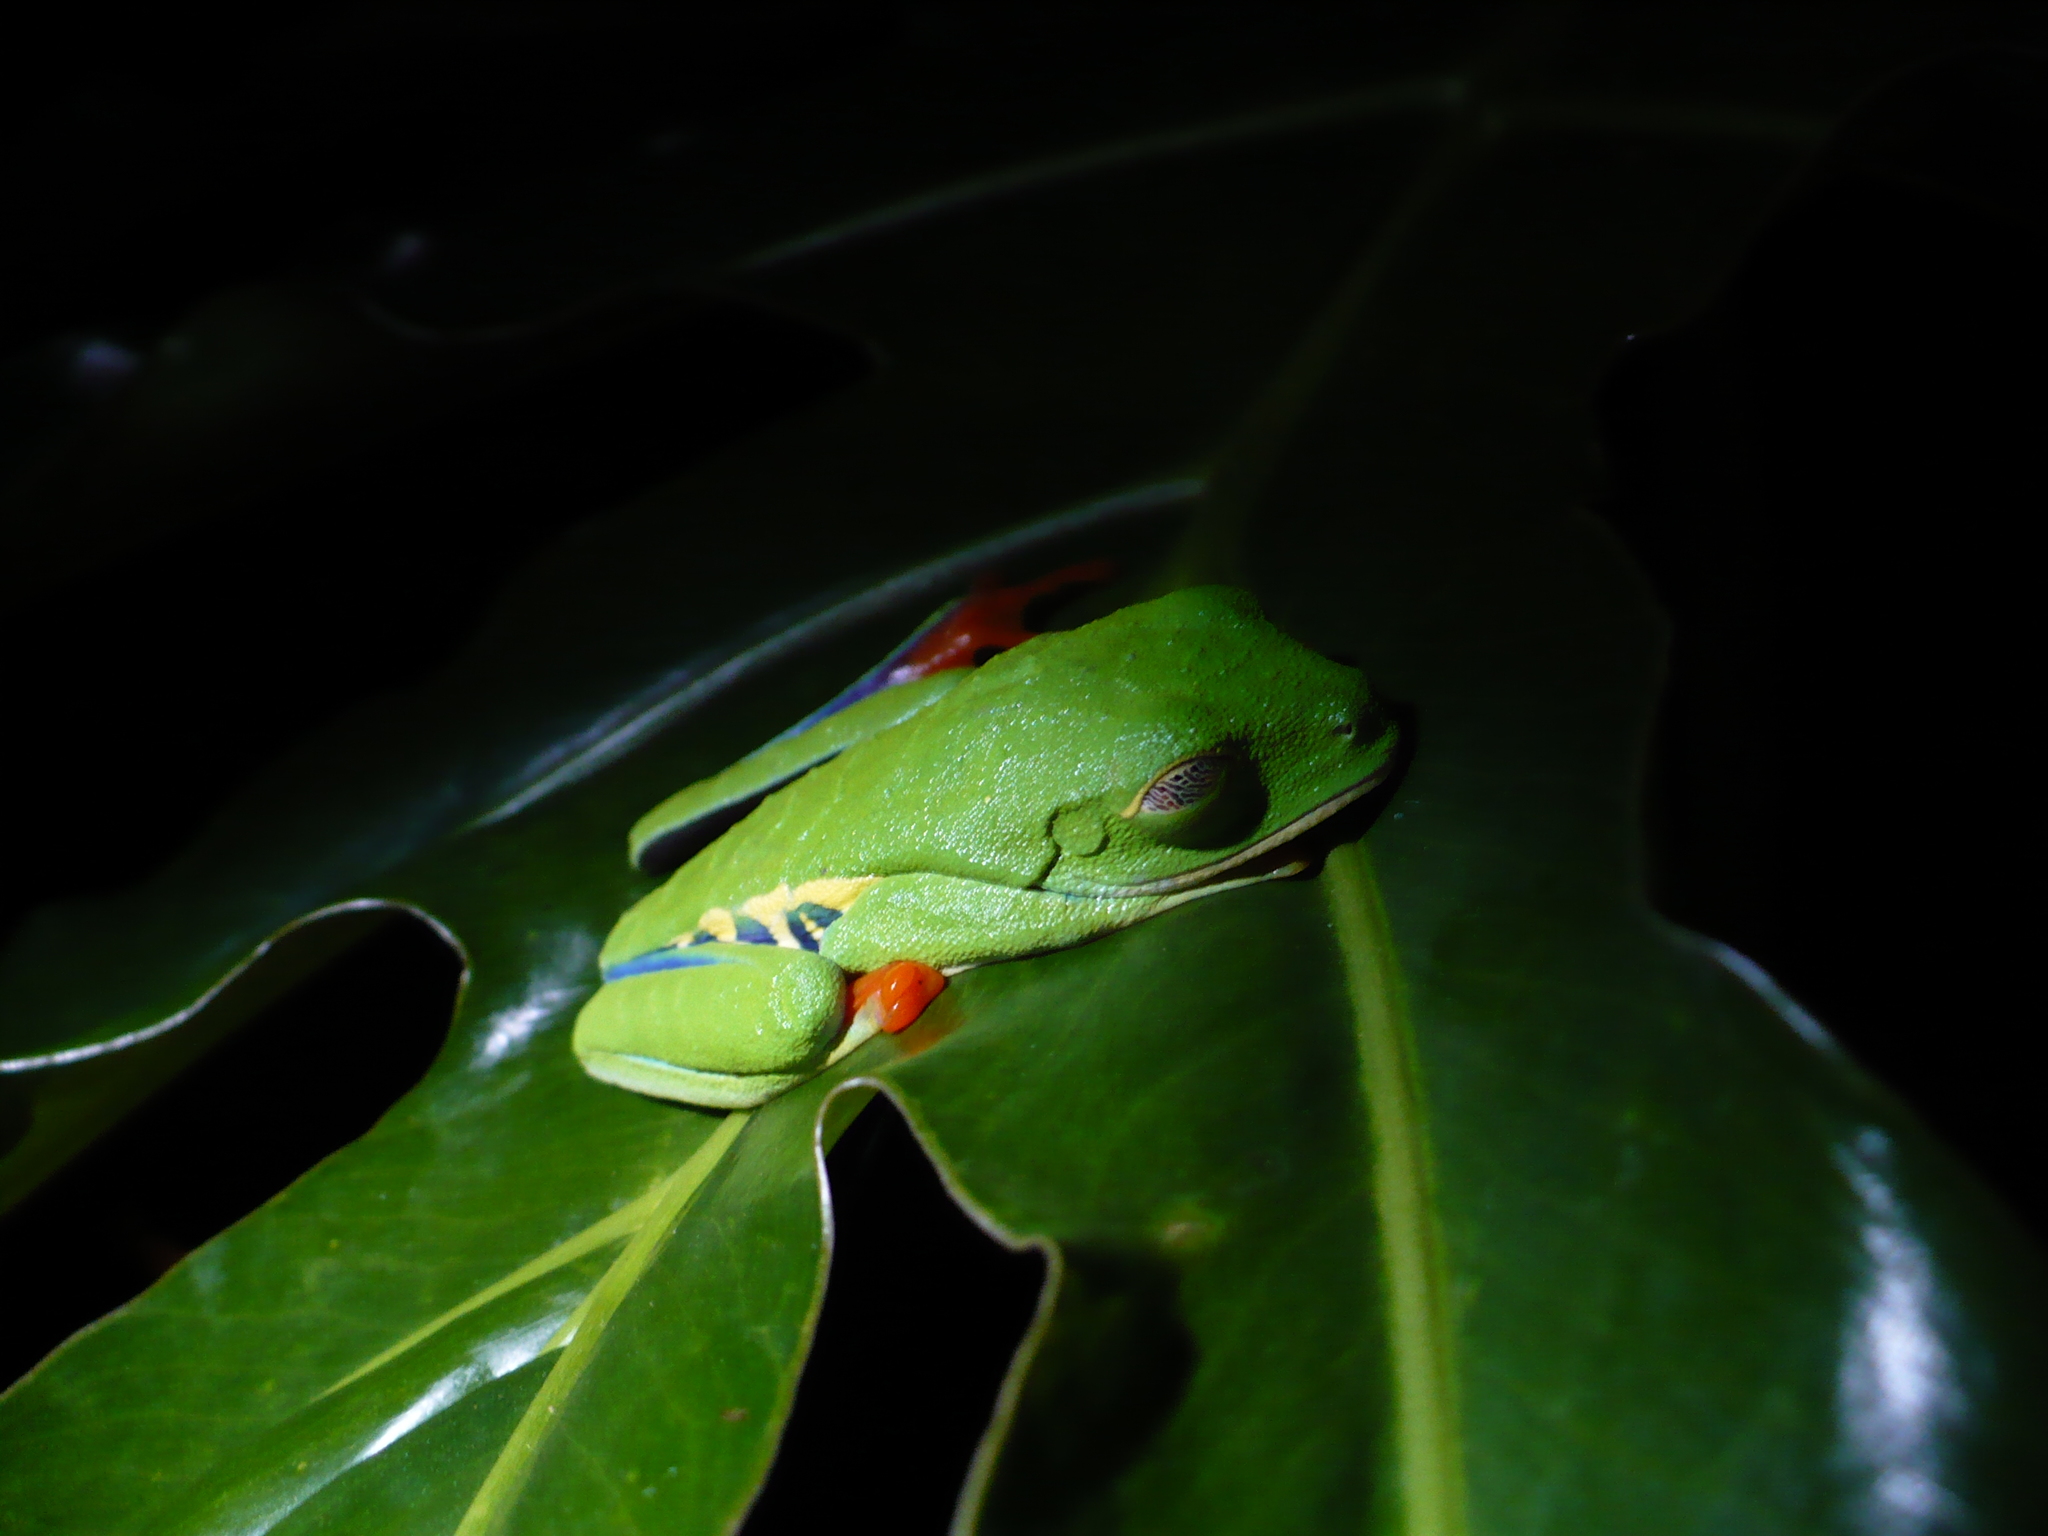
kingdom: Animalia
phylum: Chordata
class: Amphibia
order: Anura
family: Phyllomedusidae
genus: Agalychnis
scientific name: Agalychnis callidryas
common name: Red-eyed treefrog
